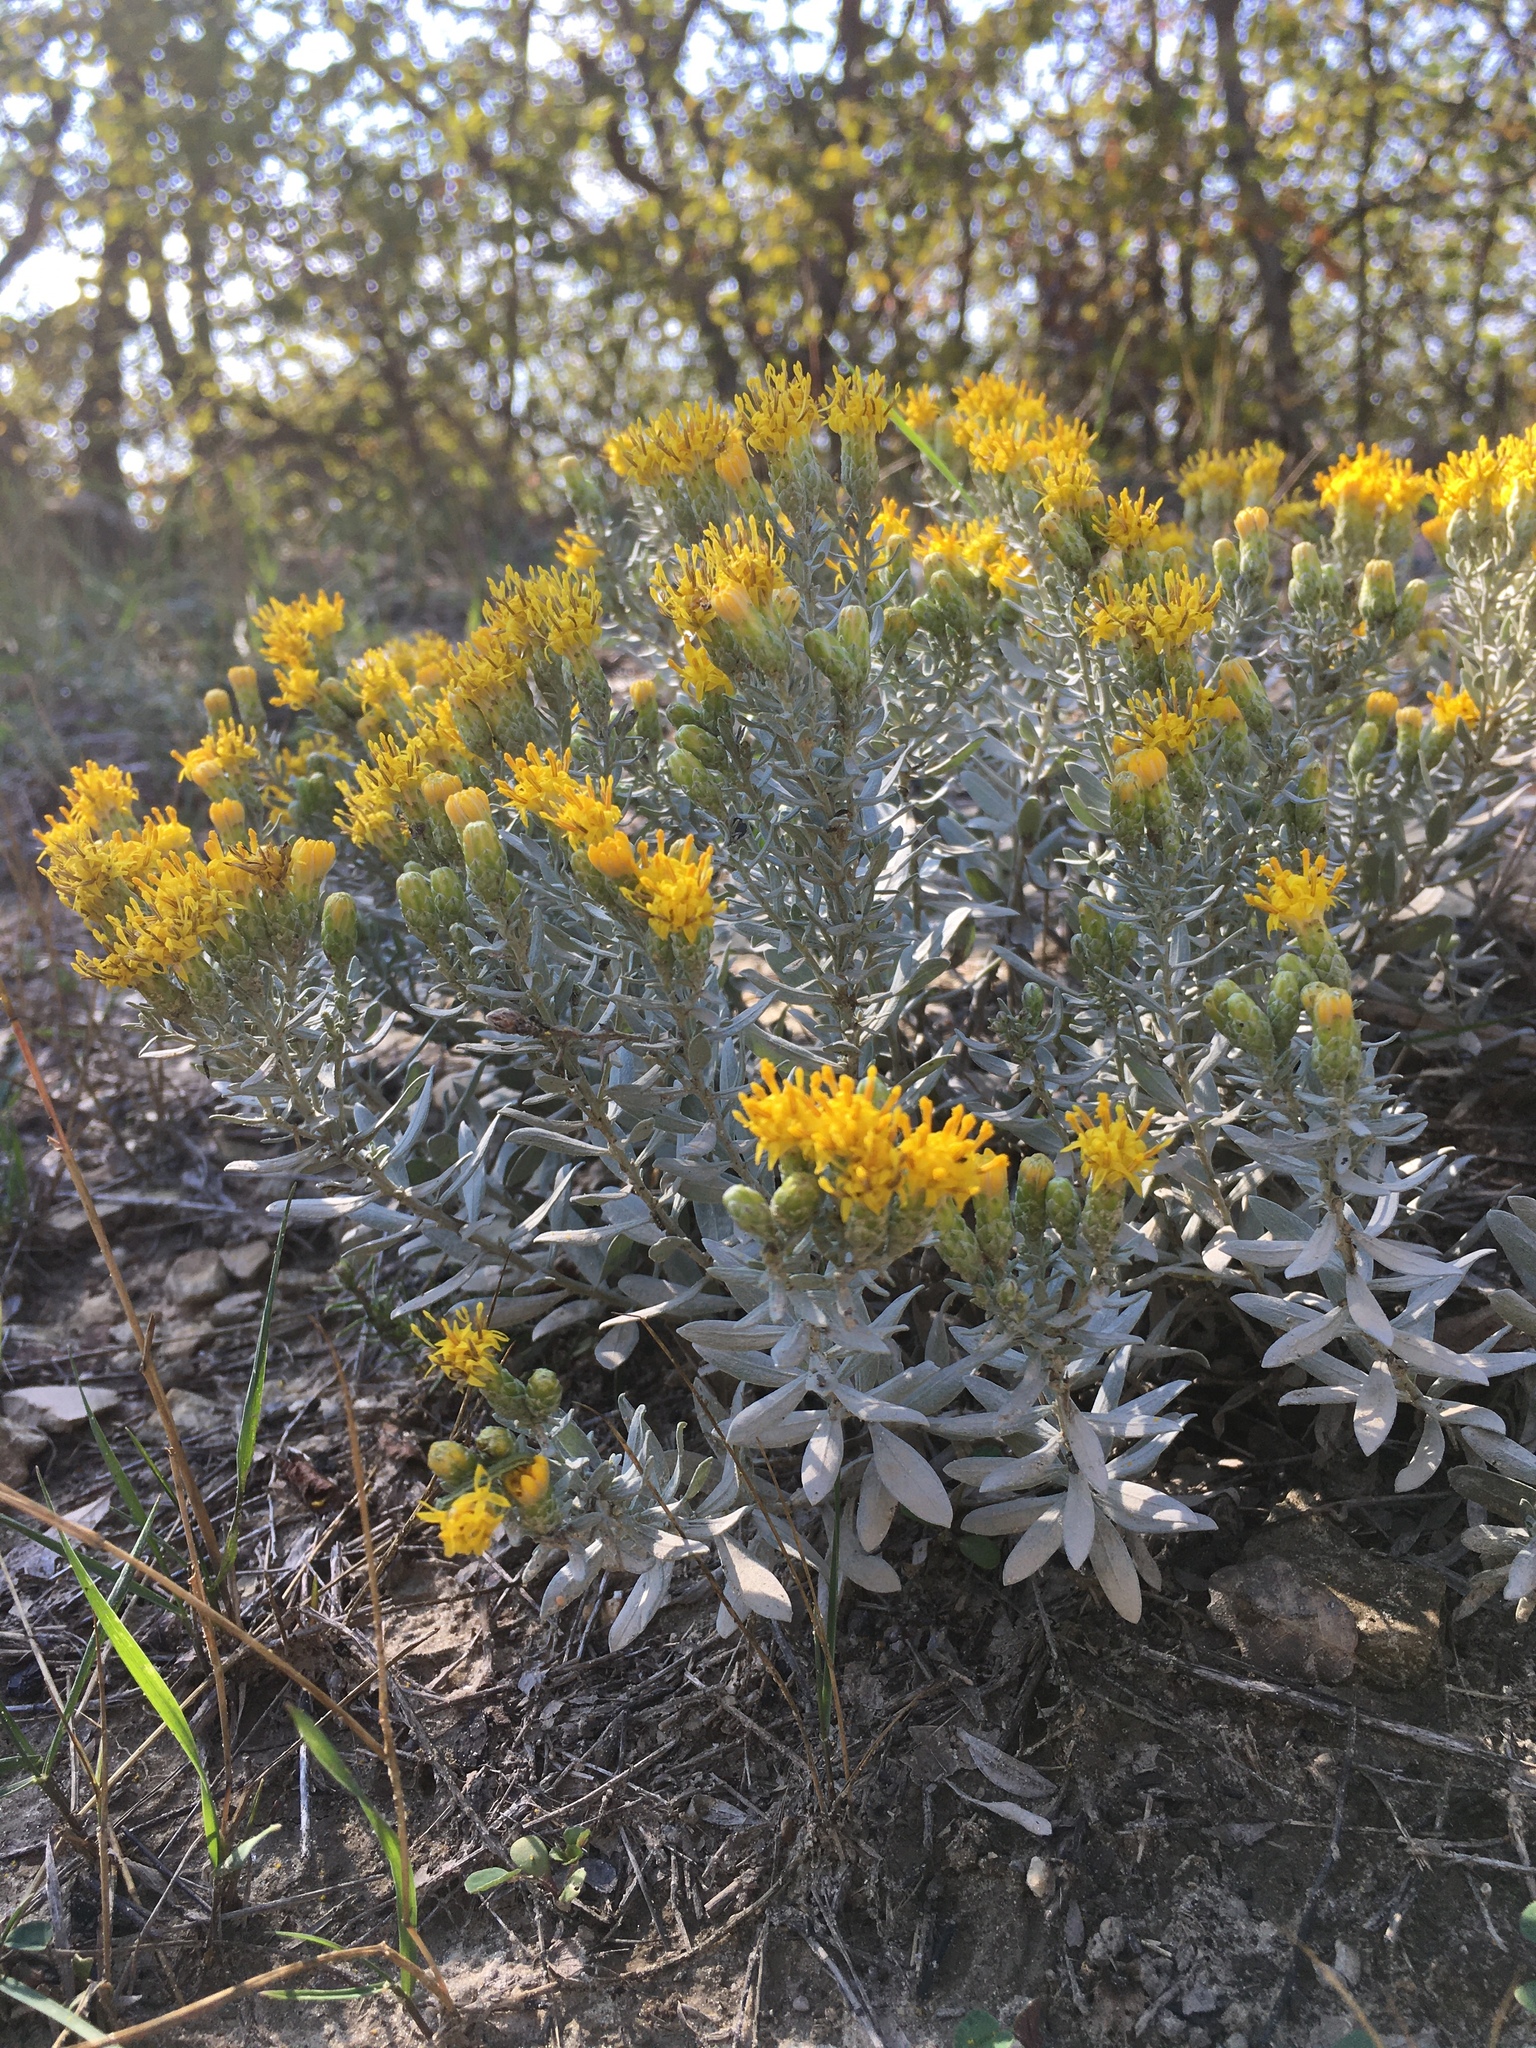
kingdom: Plantae
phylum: Tracheophyta
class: Magnoliopsida
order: Asterales
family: Asteraceae
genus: Galatella
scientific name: Galatella villosa
